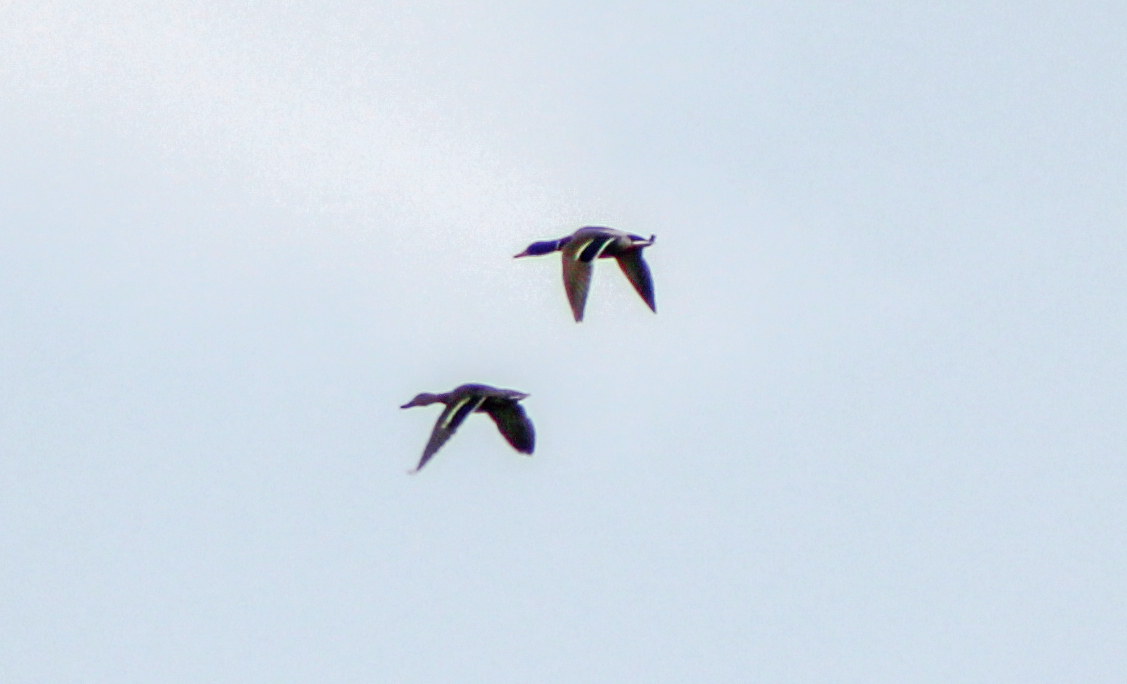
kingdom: Animalia
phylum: Chordata
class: Aves
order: Anseriformes
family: Anatidae
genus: Anas
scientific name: Anas platyrhynchos
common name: Mallard
